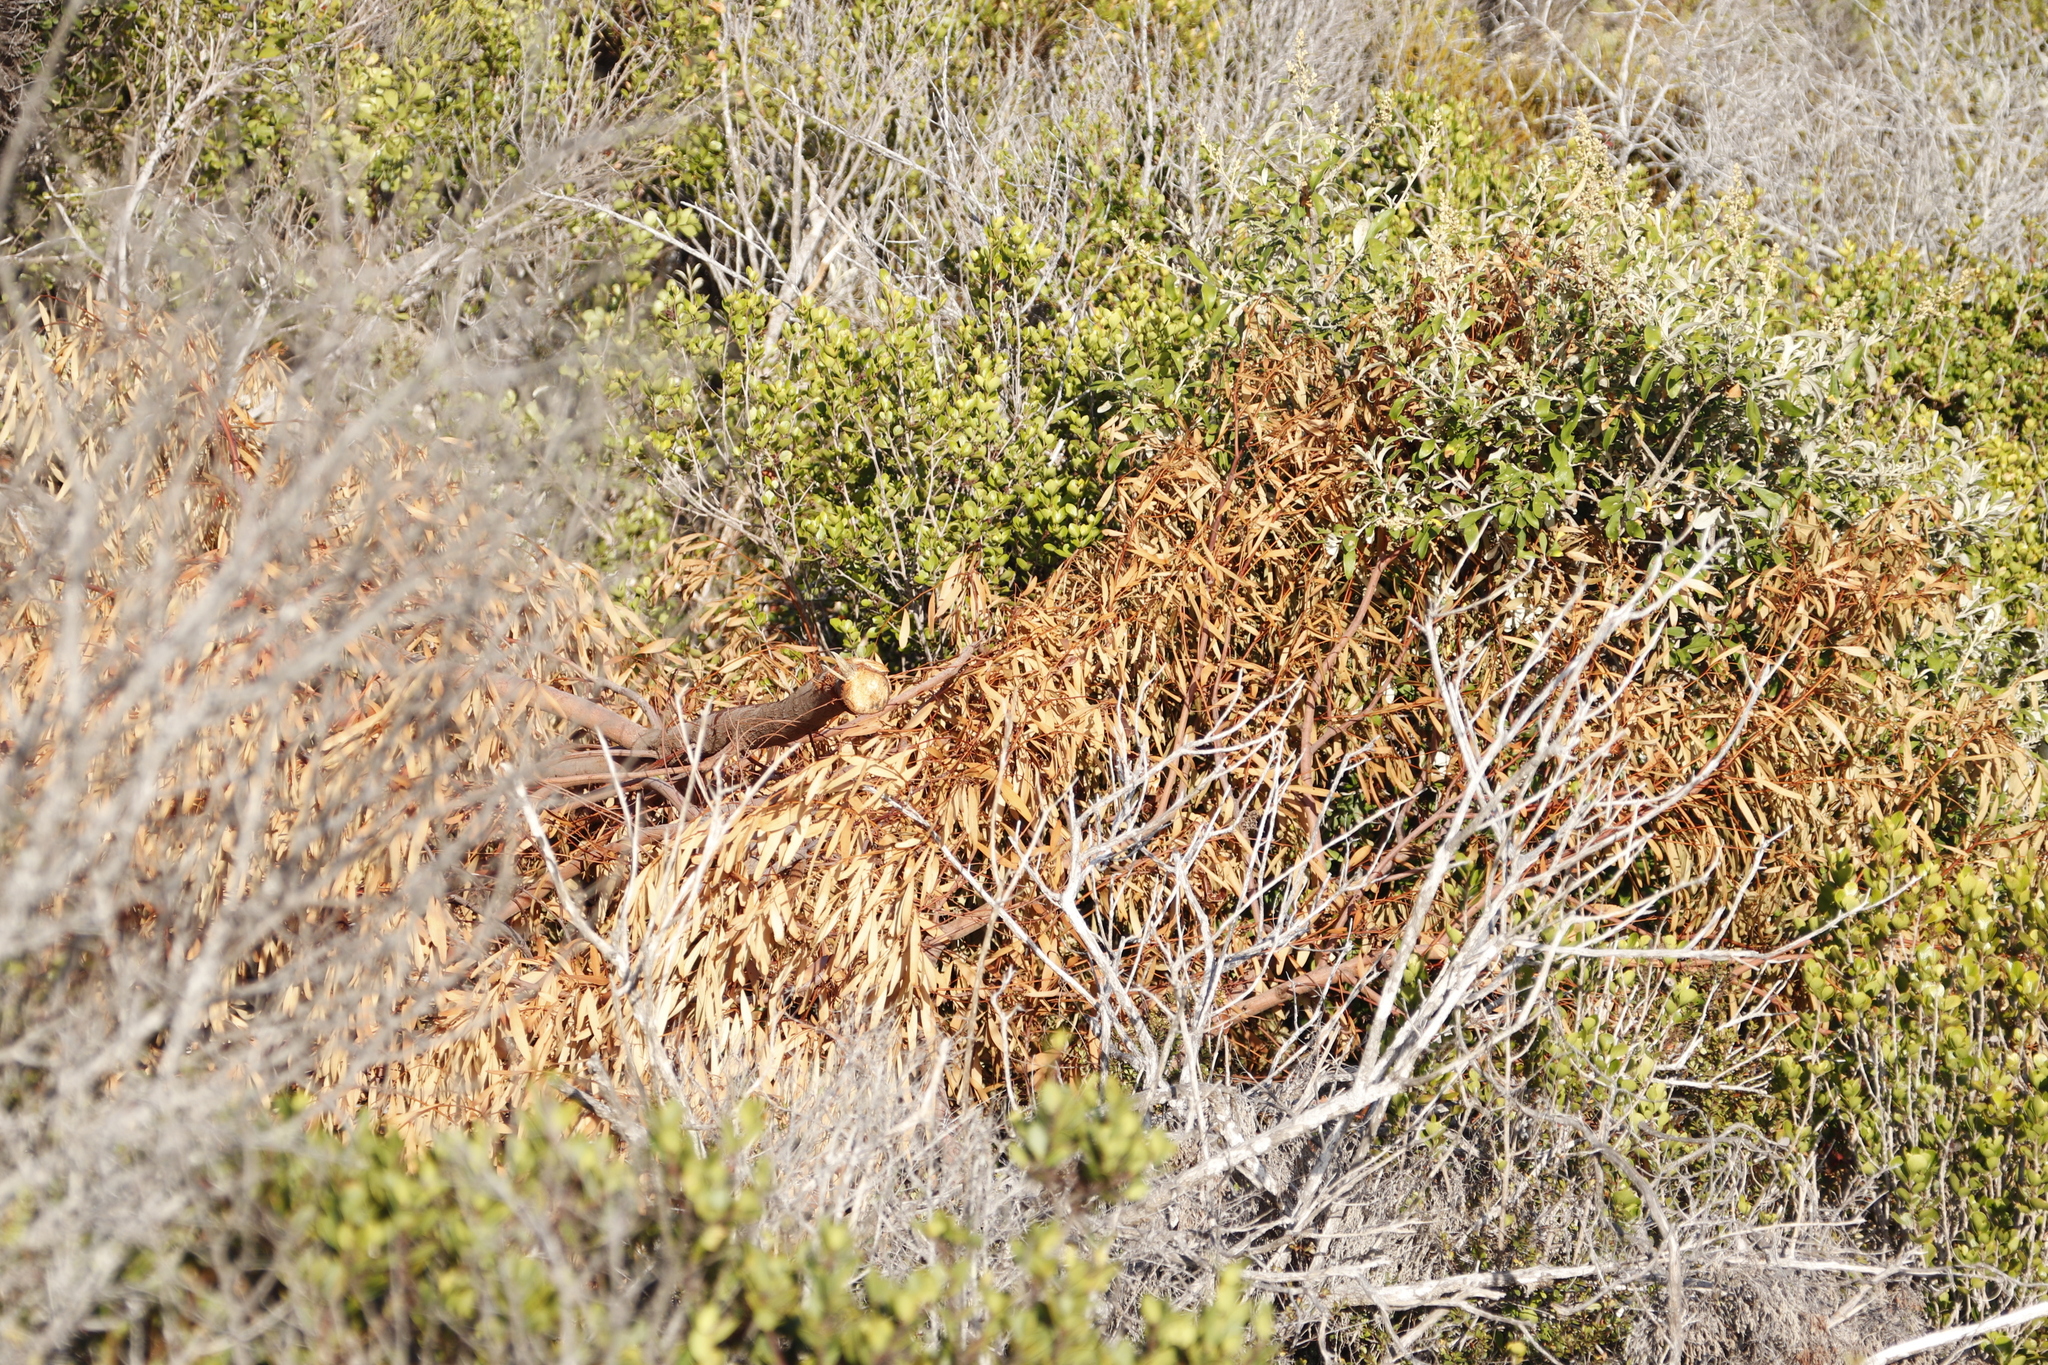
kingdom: Plantae
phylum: Tracheophyta
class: Magnoliopsida
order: Fabales
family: Fabaceae
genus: Acacia
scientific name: Acacia cyclops
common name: Coastal wattle
